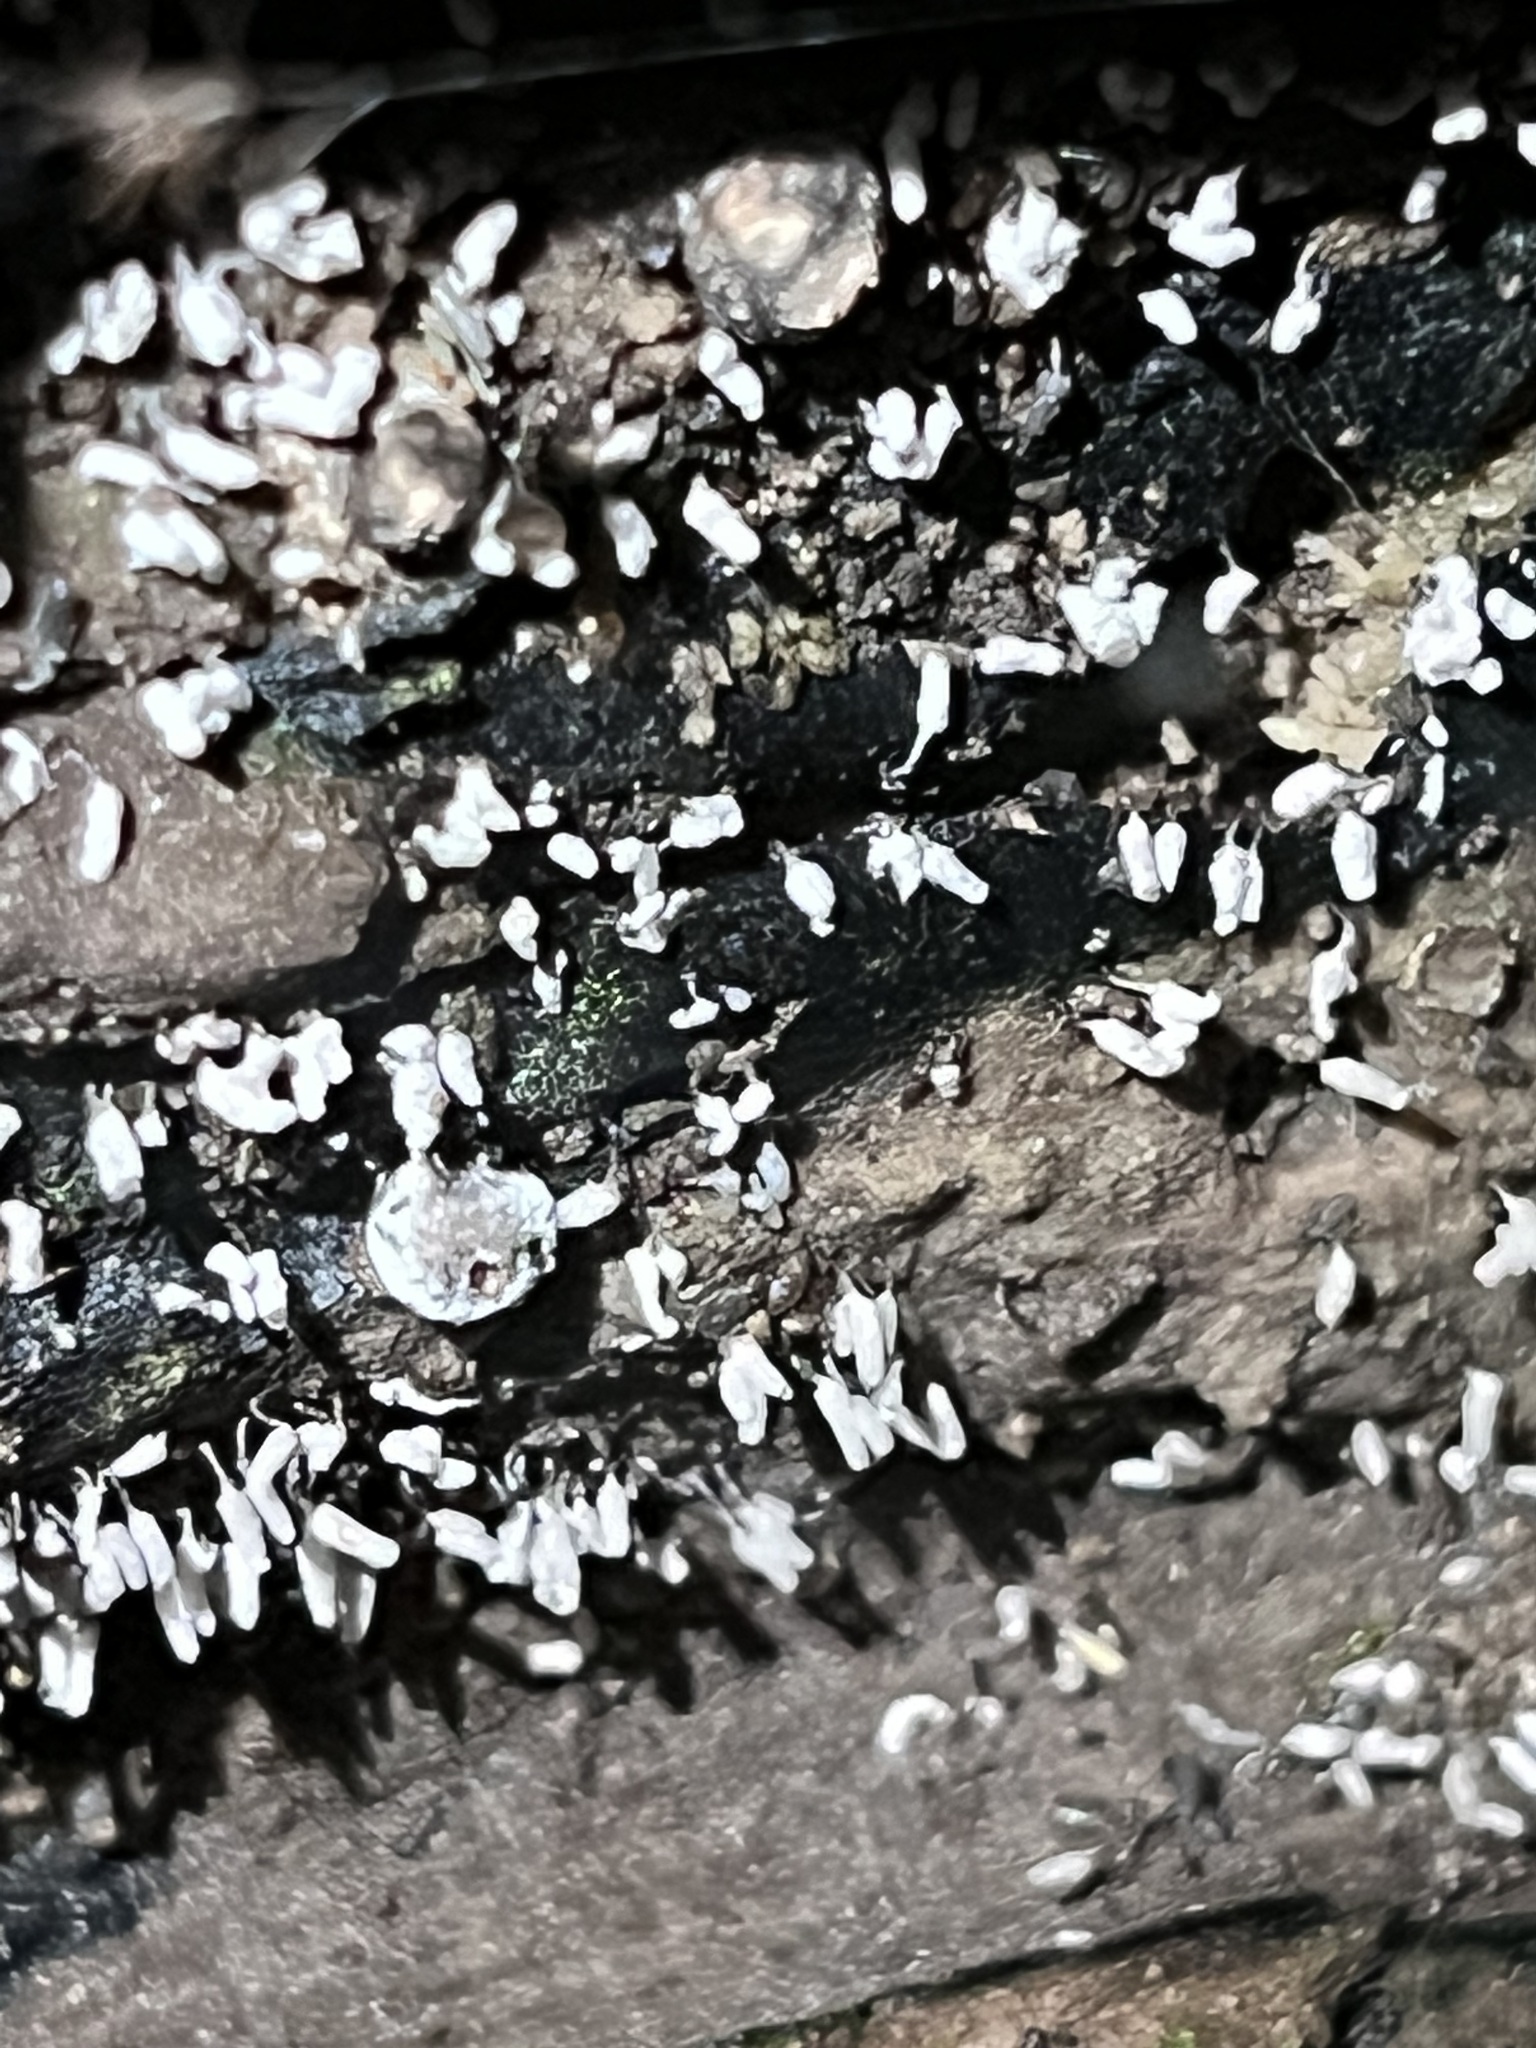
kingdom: Protozoa
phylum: Mycetozoa
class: Myxomycetes
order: Trichiales
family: Arcyriaceae
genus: Arcyria
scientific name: Arcyria cinerea
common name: White carnival candy slime mold
